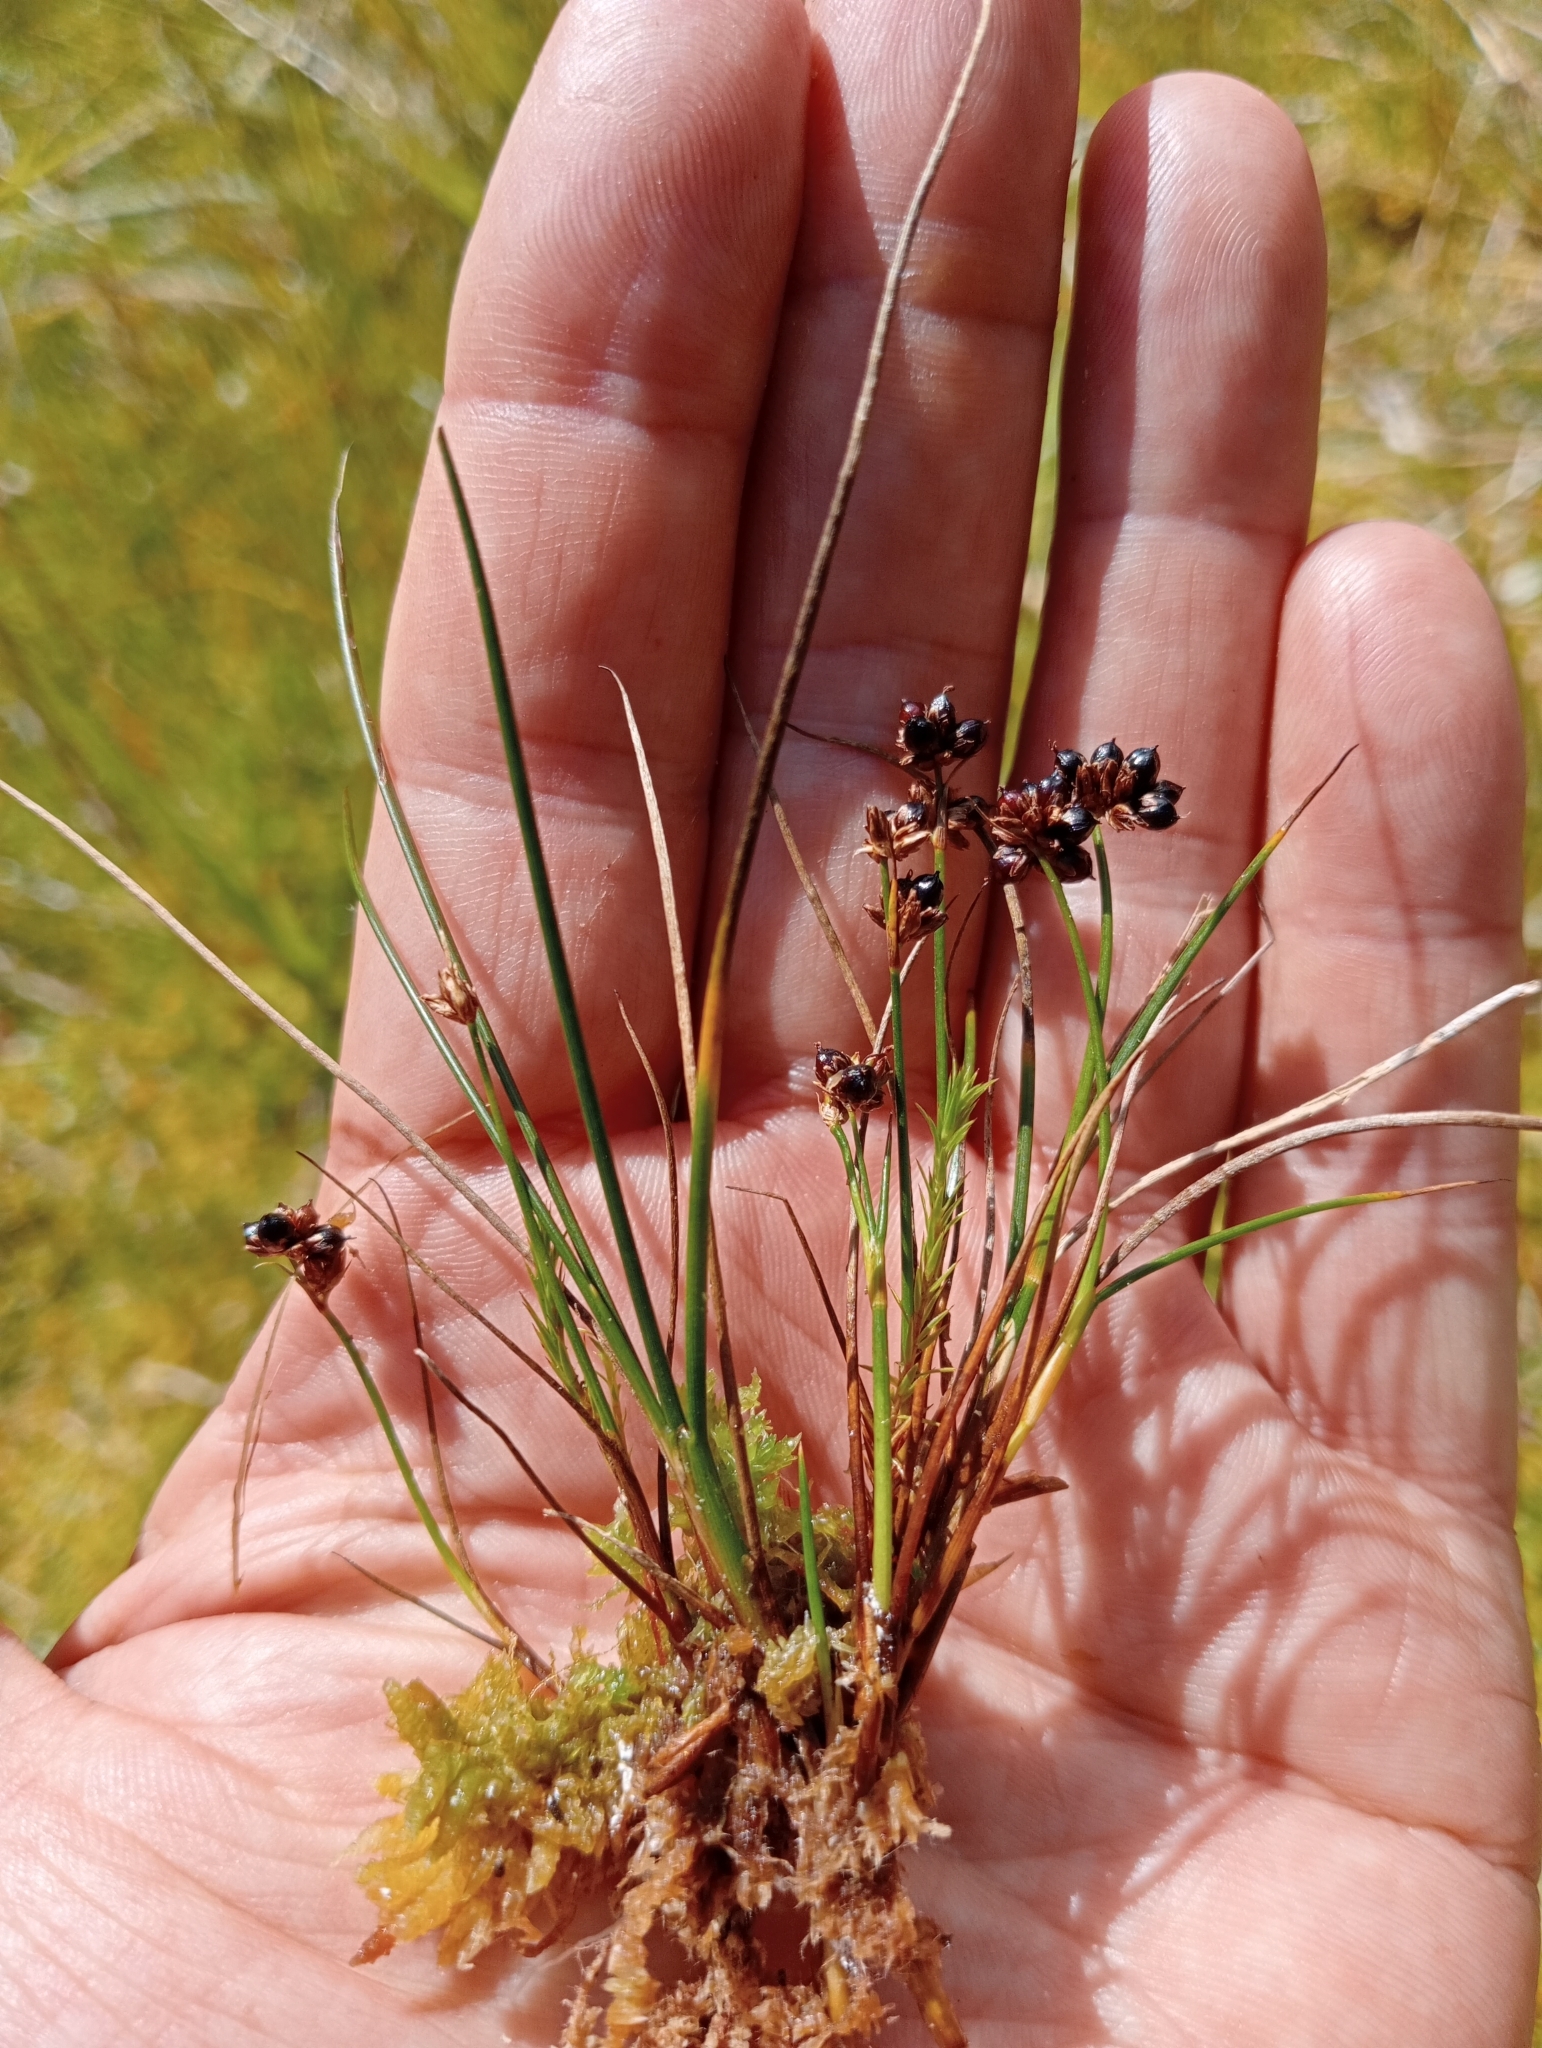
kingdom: Plantae
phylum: Tracheophyta
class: Liliopsida
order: Poales
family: Juncaceae
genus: Juncus
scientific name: Juncus novae-zelandiae
